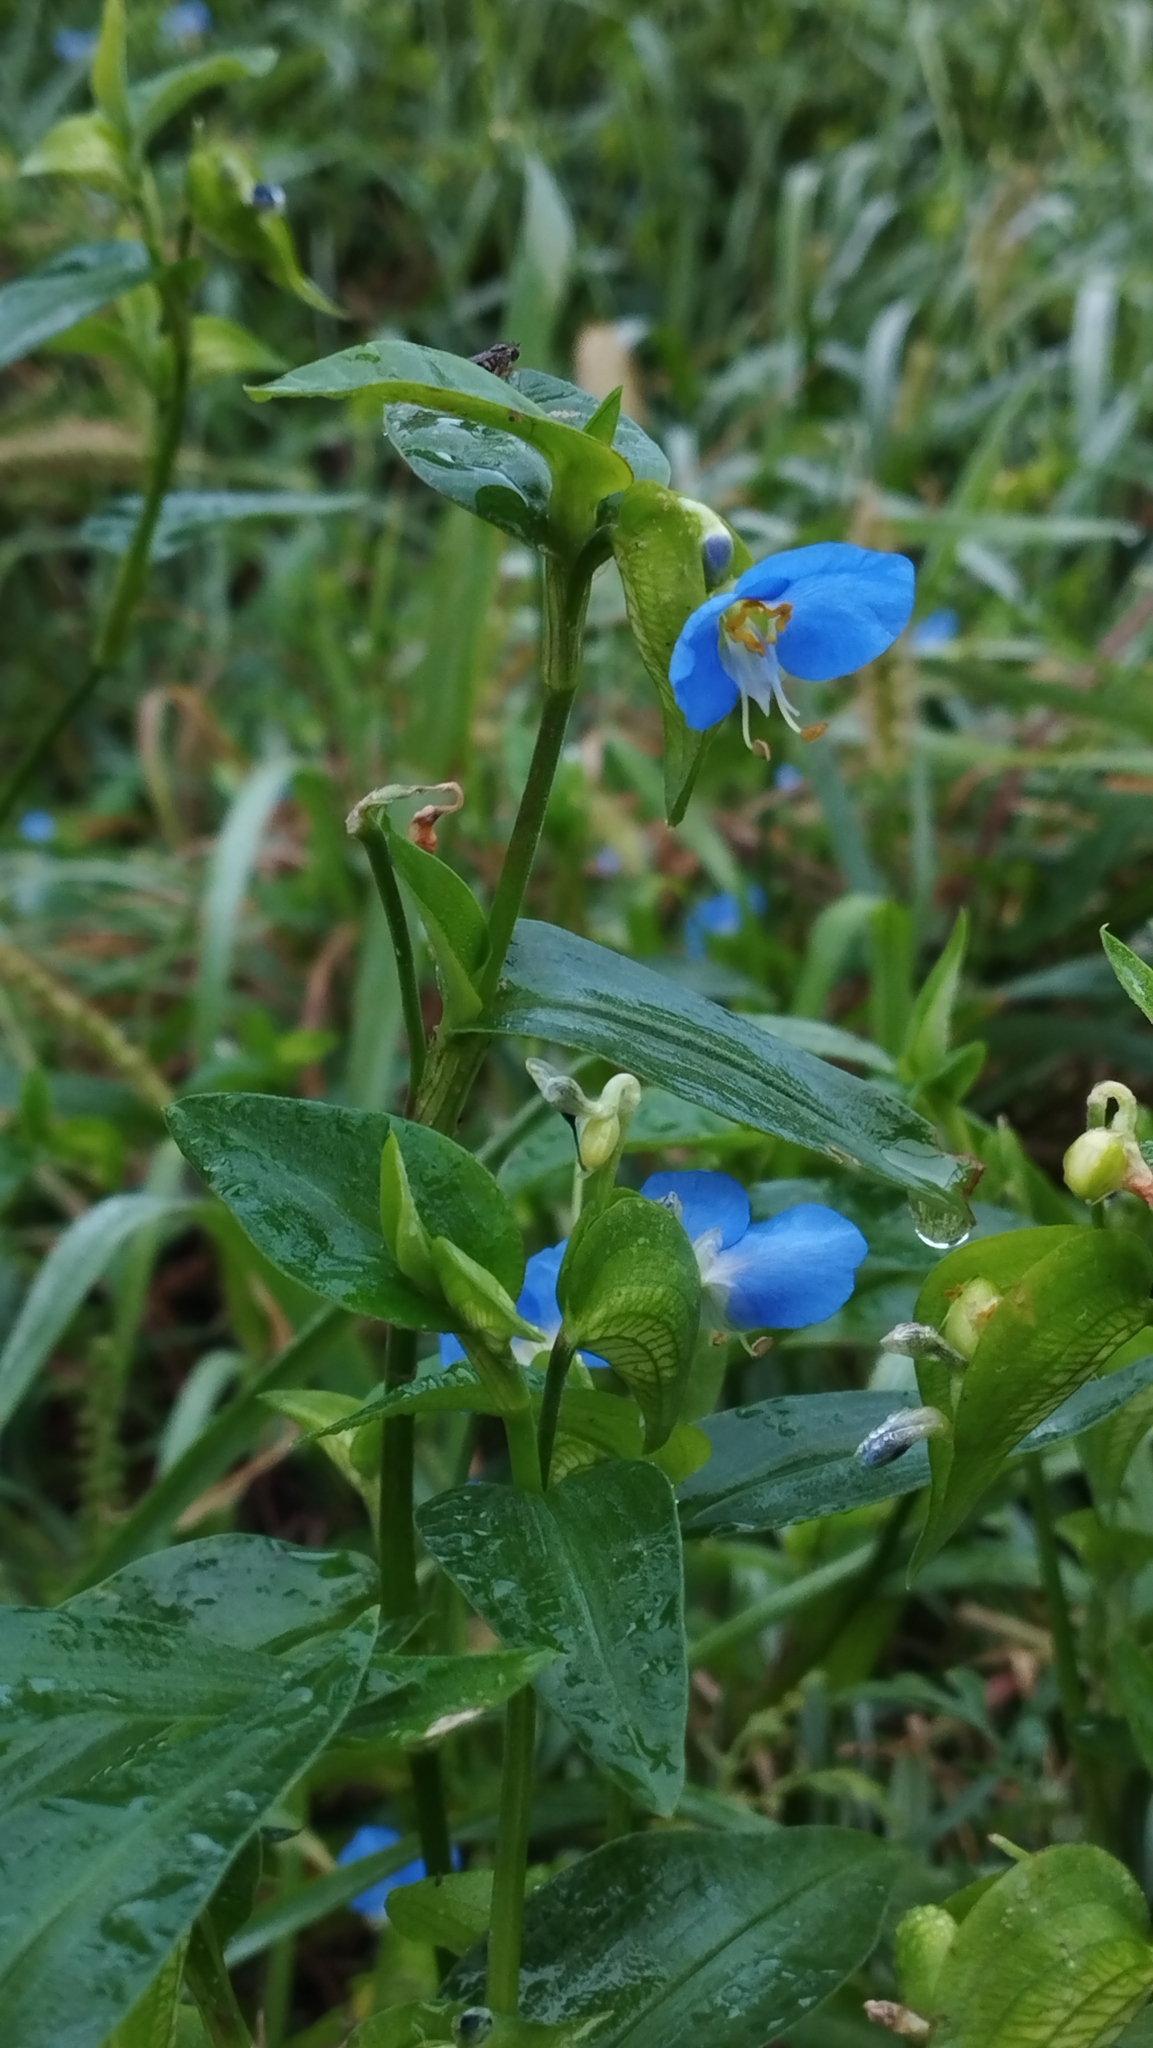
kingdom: Plantae
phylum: Tracheophyta
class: Liliopsida
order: Commelinales
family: Commelinaceae
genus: Commelina
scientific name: Commelina communis
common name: Asiatic dayflower
